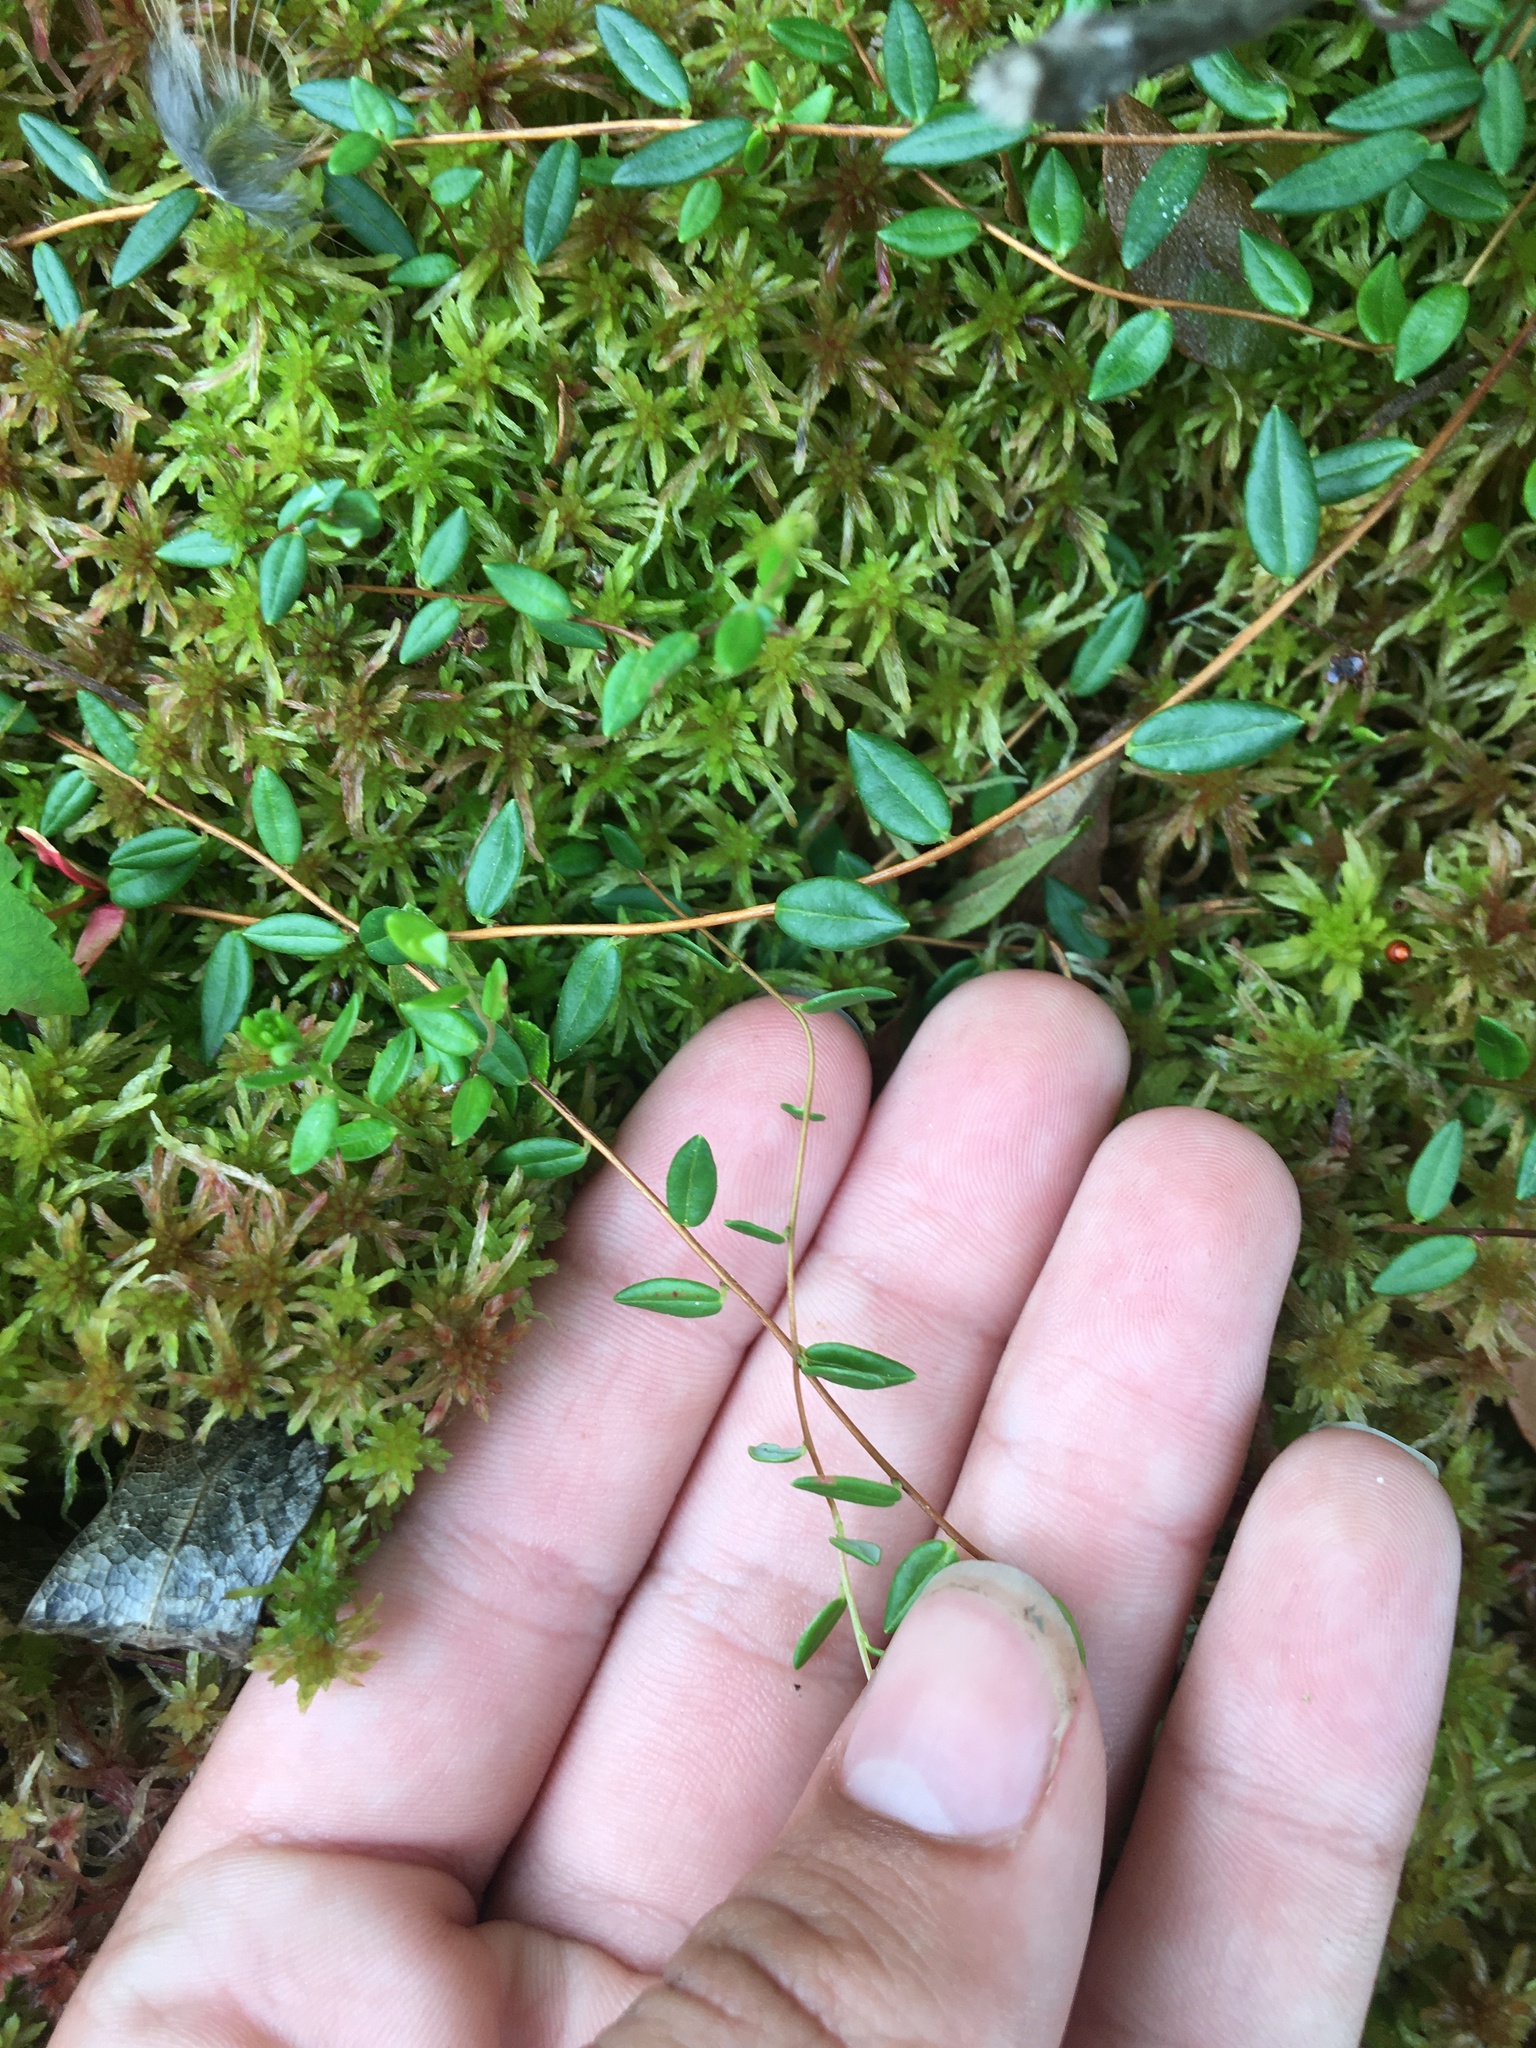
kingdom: Plantae
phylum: Tracheophyta
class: Magnoliopsida
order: Ericales
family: Ericaceae
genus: Vaccinium
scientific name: Vaccinium oxycoccos
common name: Cranberry
